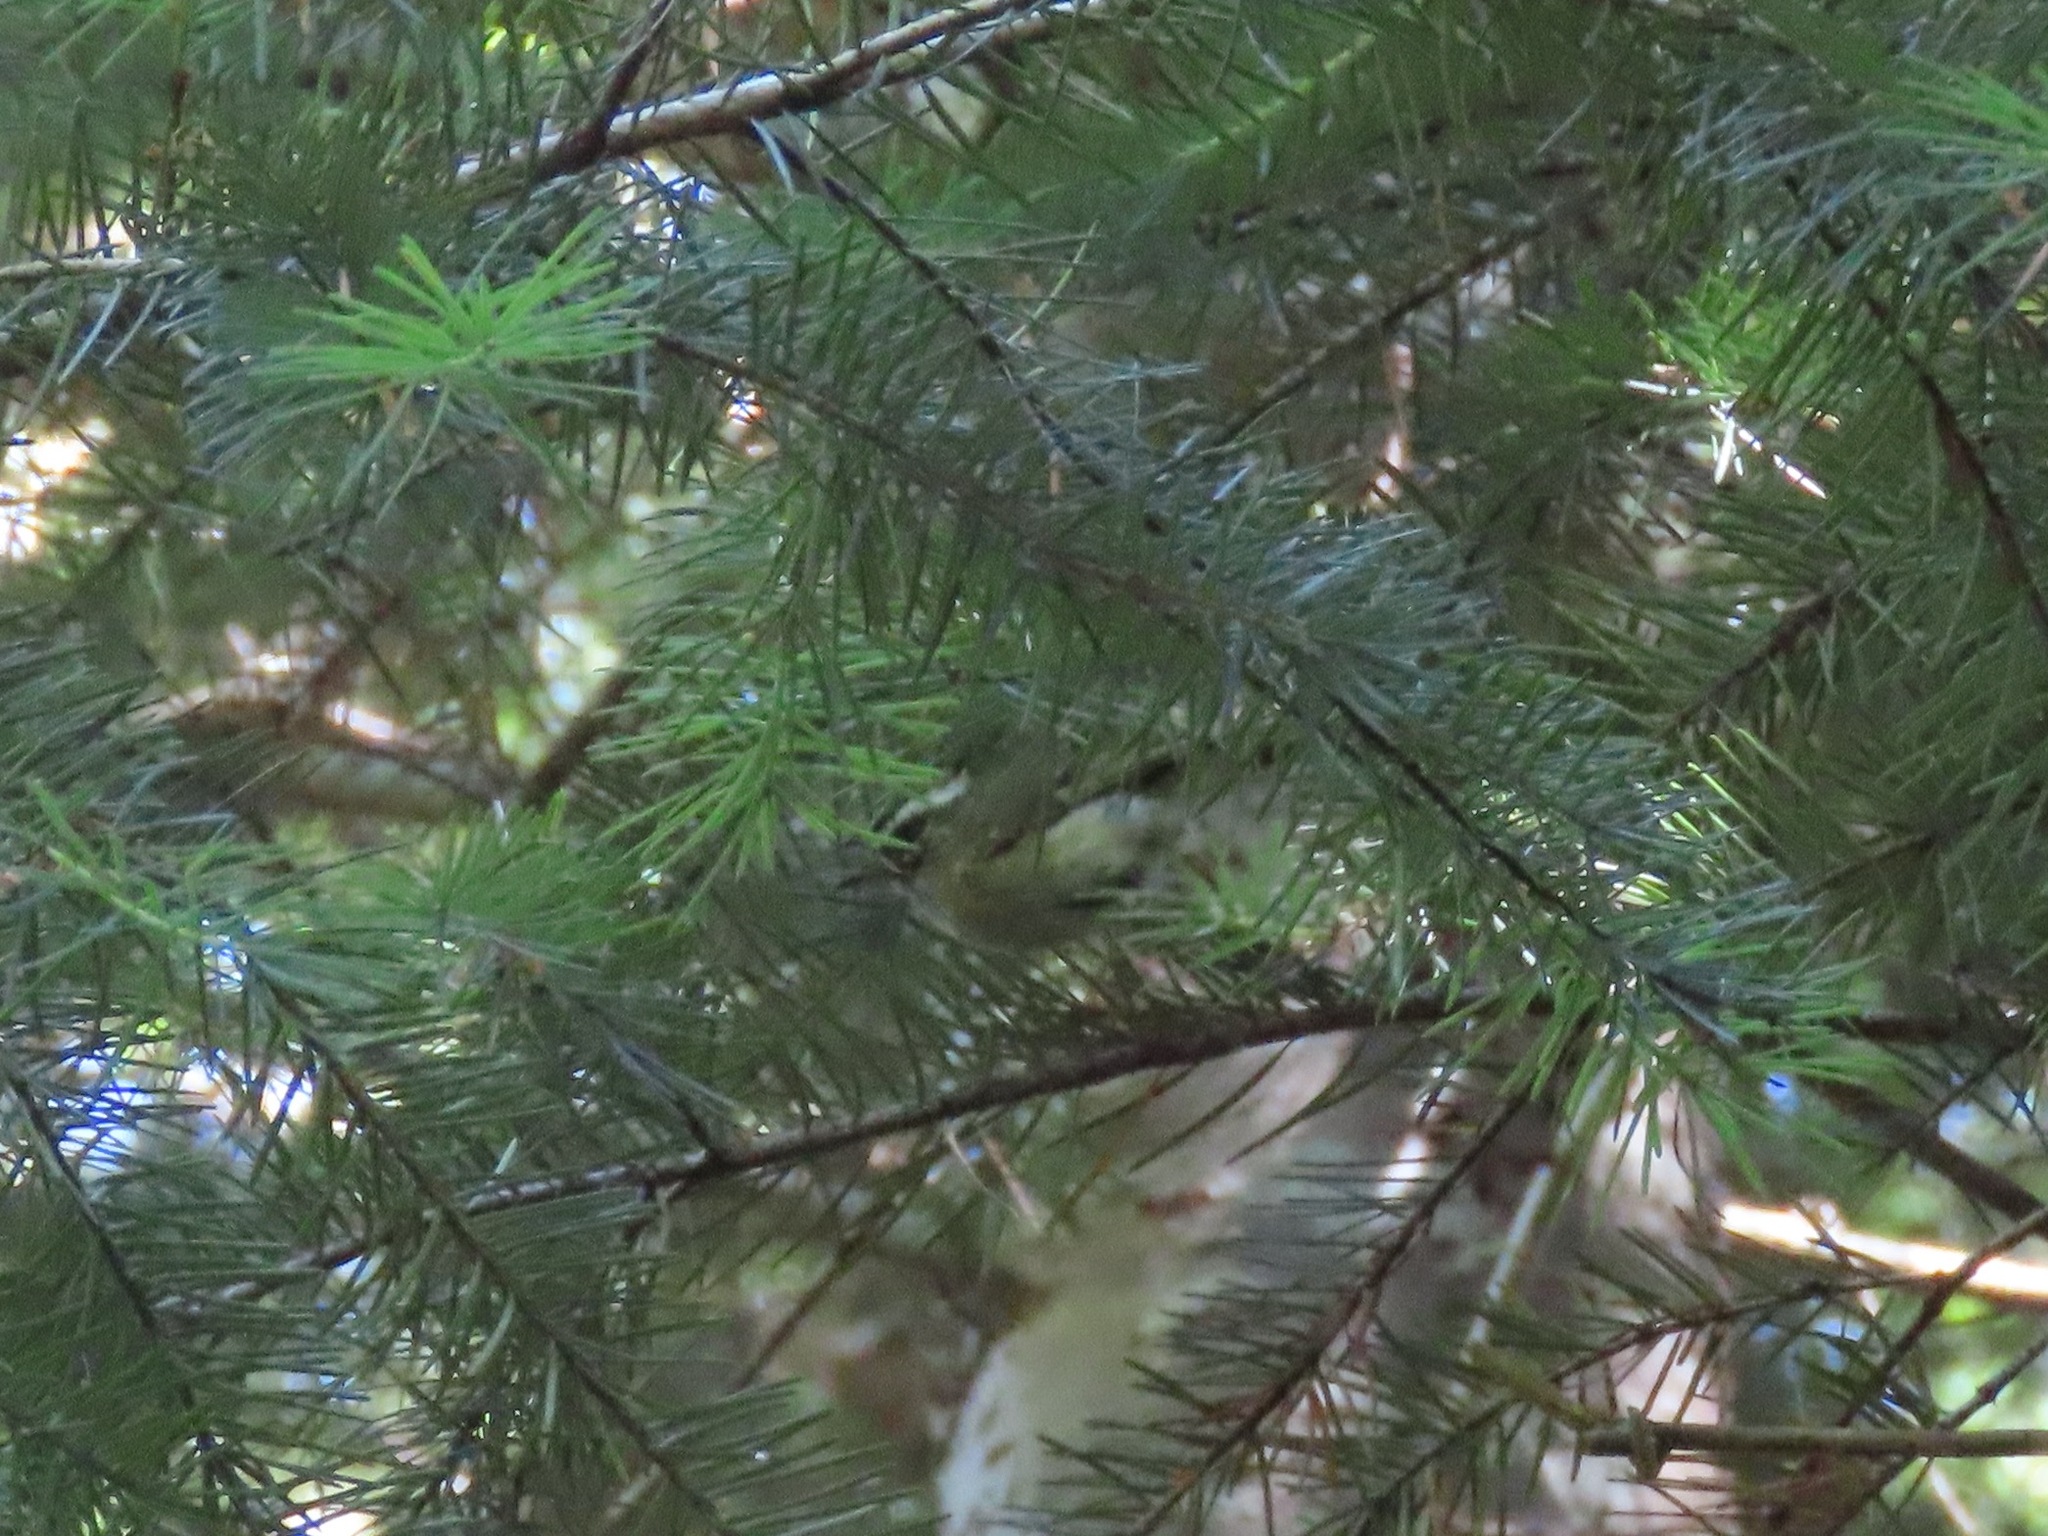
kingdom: Animalia
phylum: Chordata
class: Aves
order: Passeriformes
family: Regulidae
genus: Regulus
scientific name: Regulus satrapa
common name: Golden-crowned kinglet
